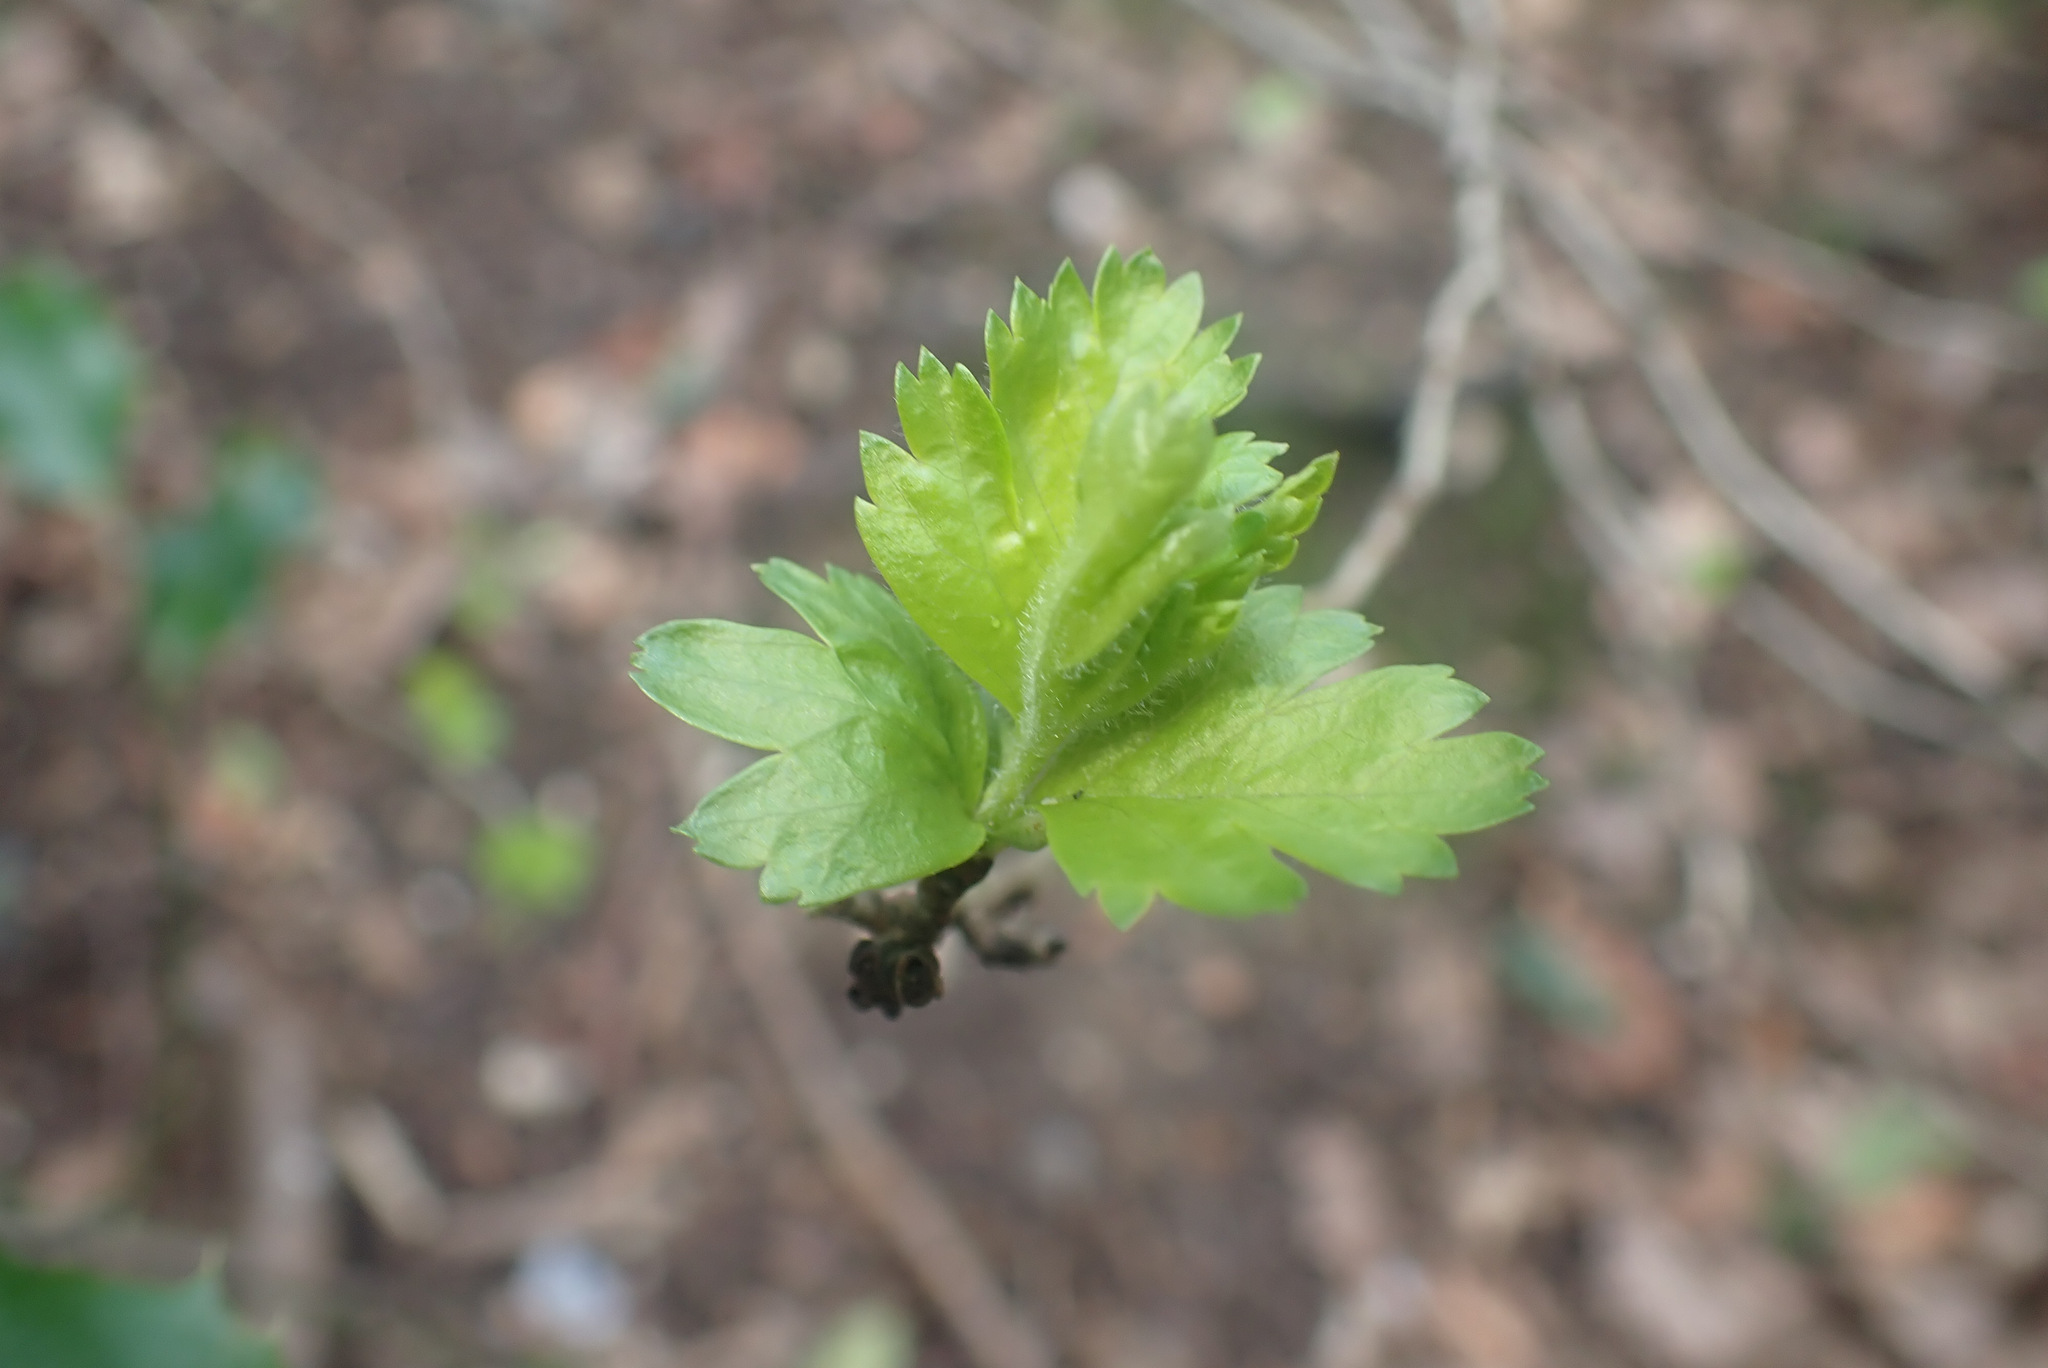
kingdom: Plantae
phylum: Tracheophyta
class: Magnoliopsida
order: Rosales
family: Rosaceae
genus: Crataegus
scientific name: Crataegus monogyna
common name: Hawthorn
